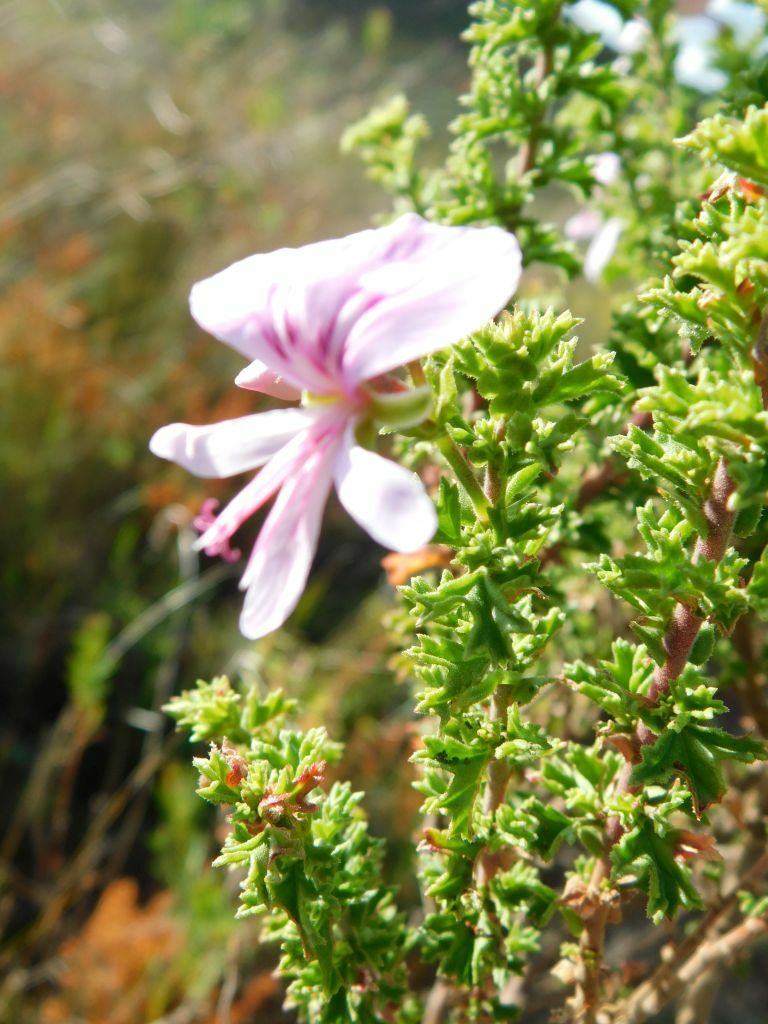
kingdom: Plantae
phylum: Tracheophyta
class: Magnoliopsida
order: Geraniales
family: Geraniaceae
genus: Pelargonium
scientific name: Pelargonium hermaniifolium
